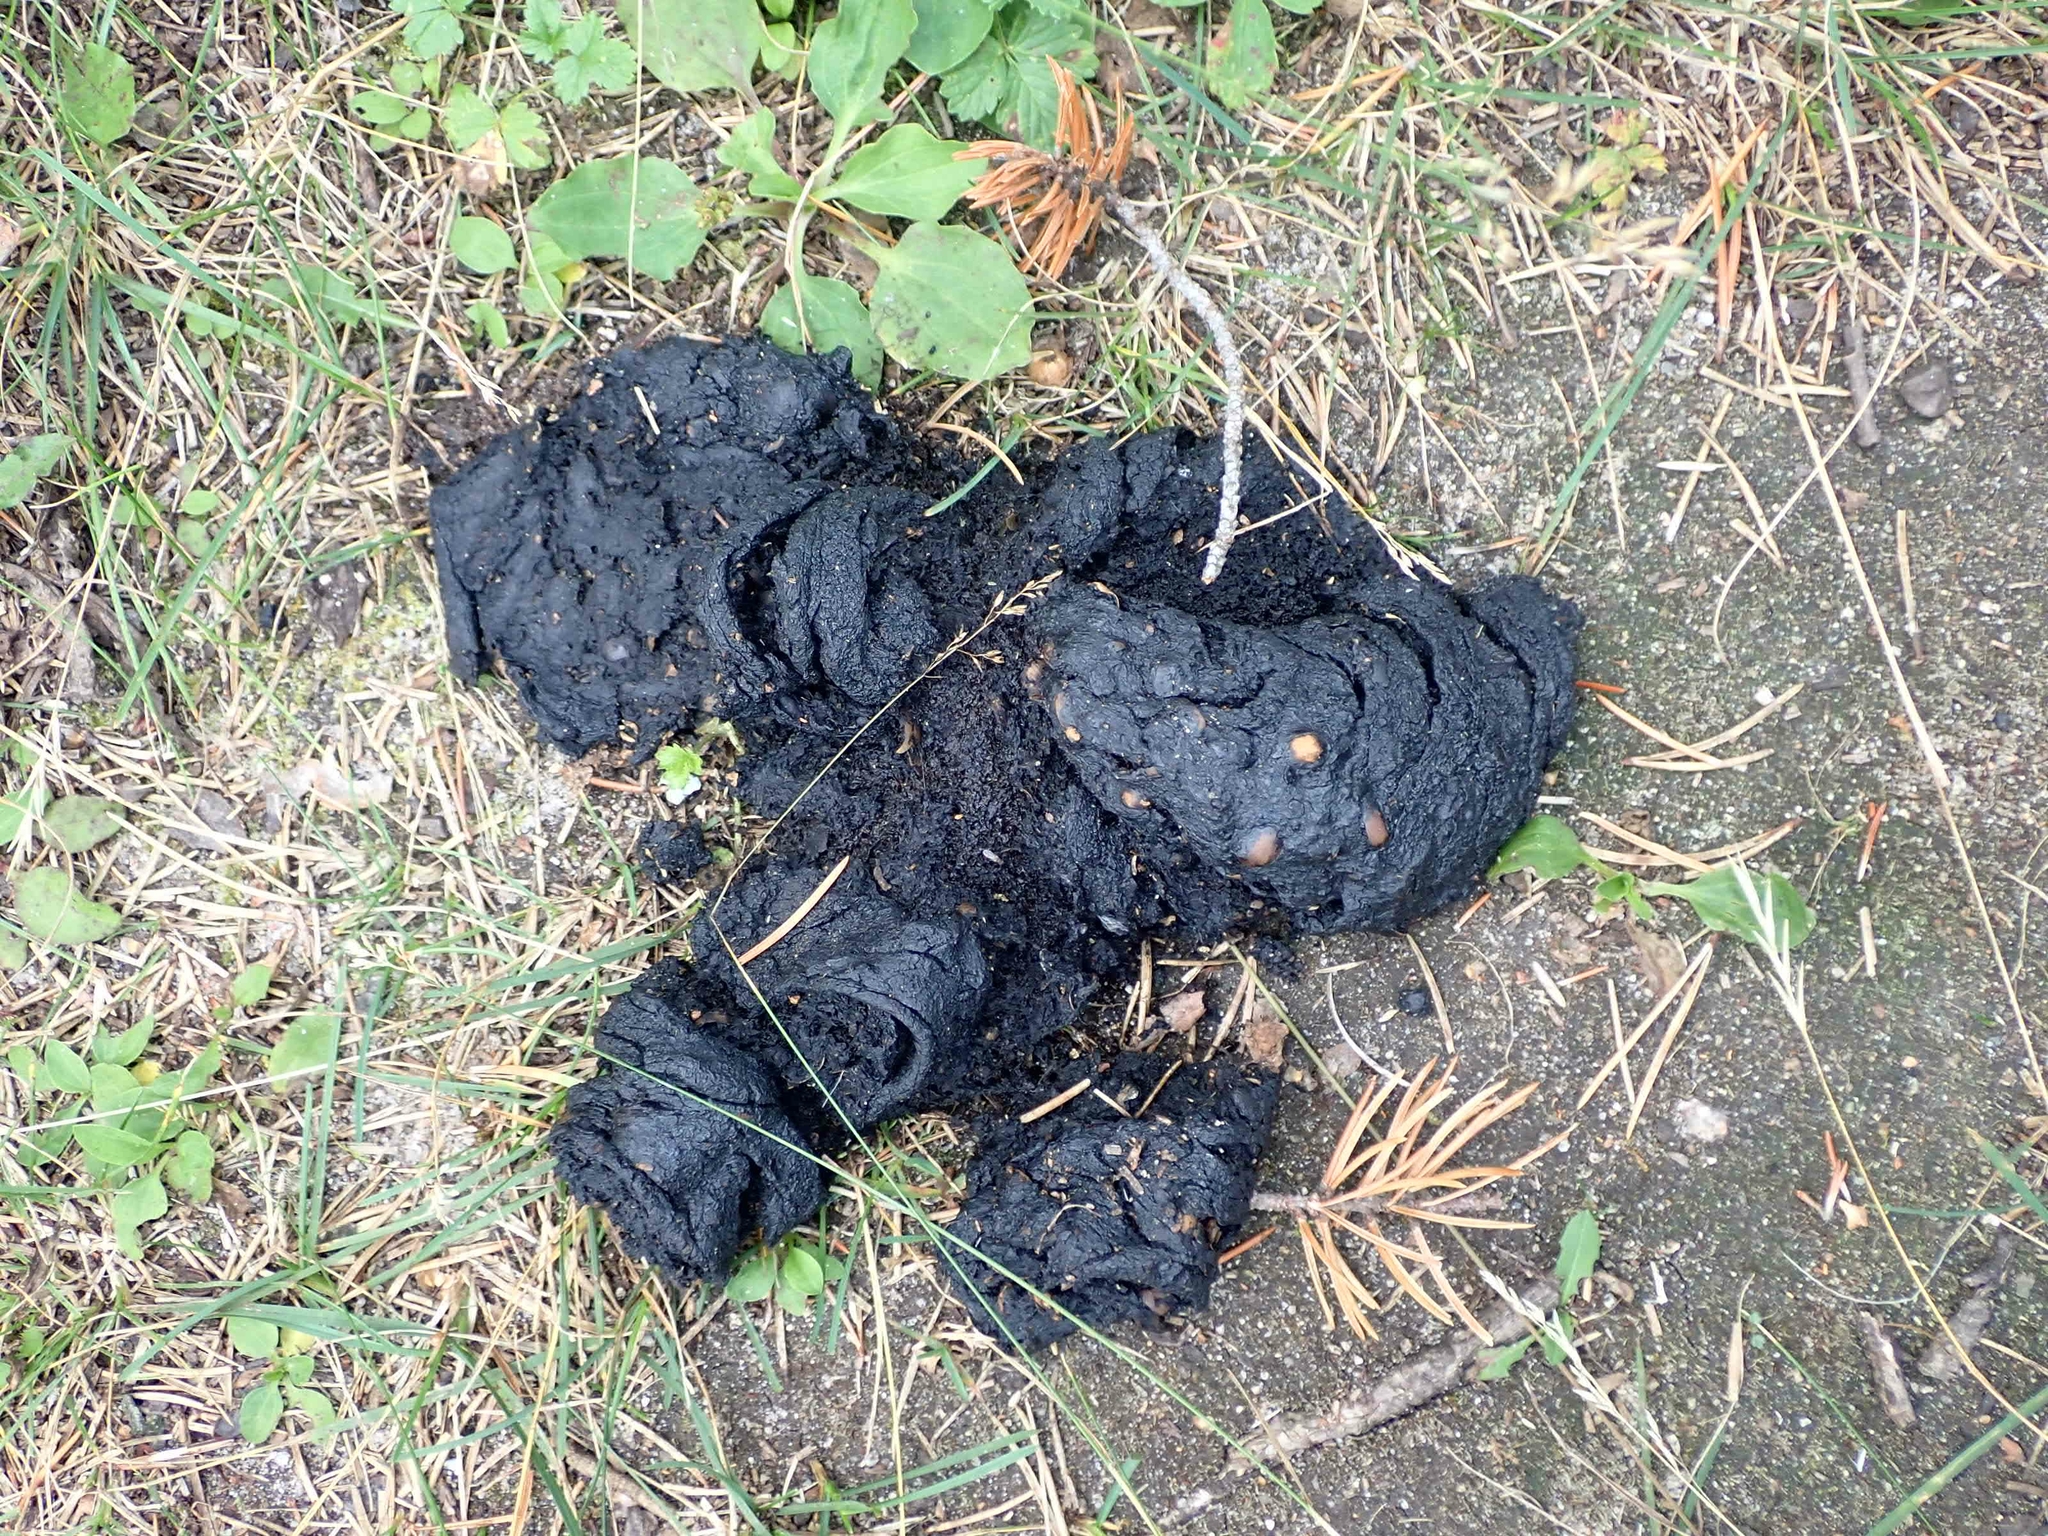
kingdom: Animalia
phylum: Chordata
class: Mammalia
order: Carnivora
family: Ursidae
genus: Ursus
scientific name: Ursus americanus
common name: American black bear
